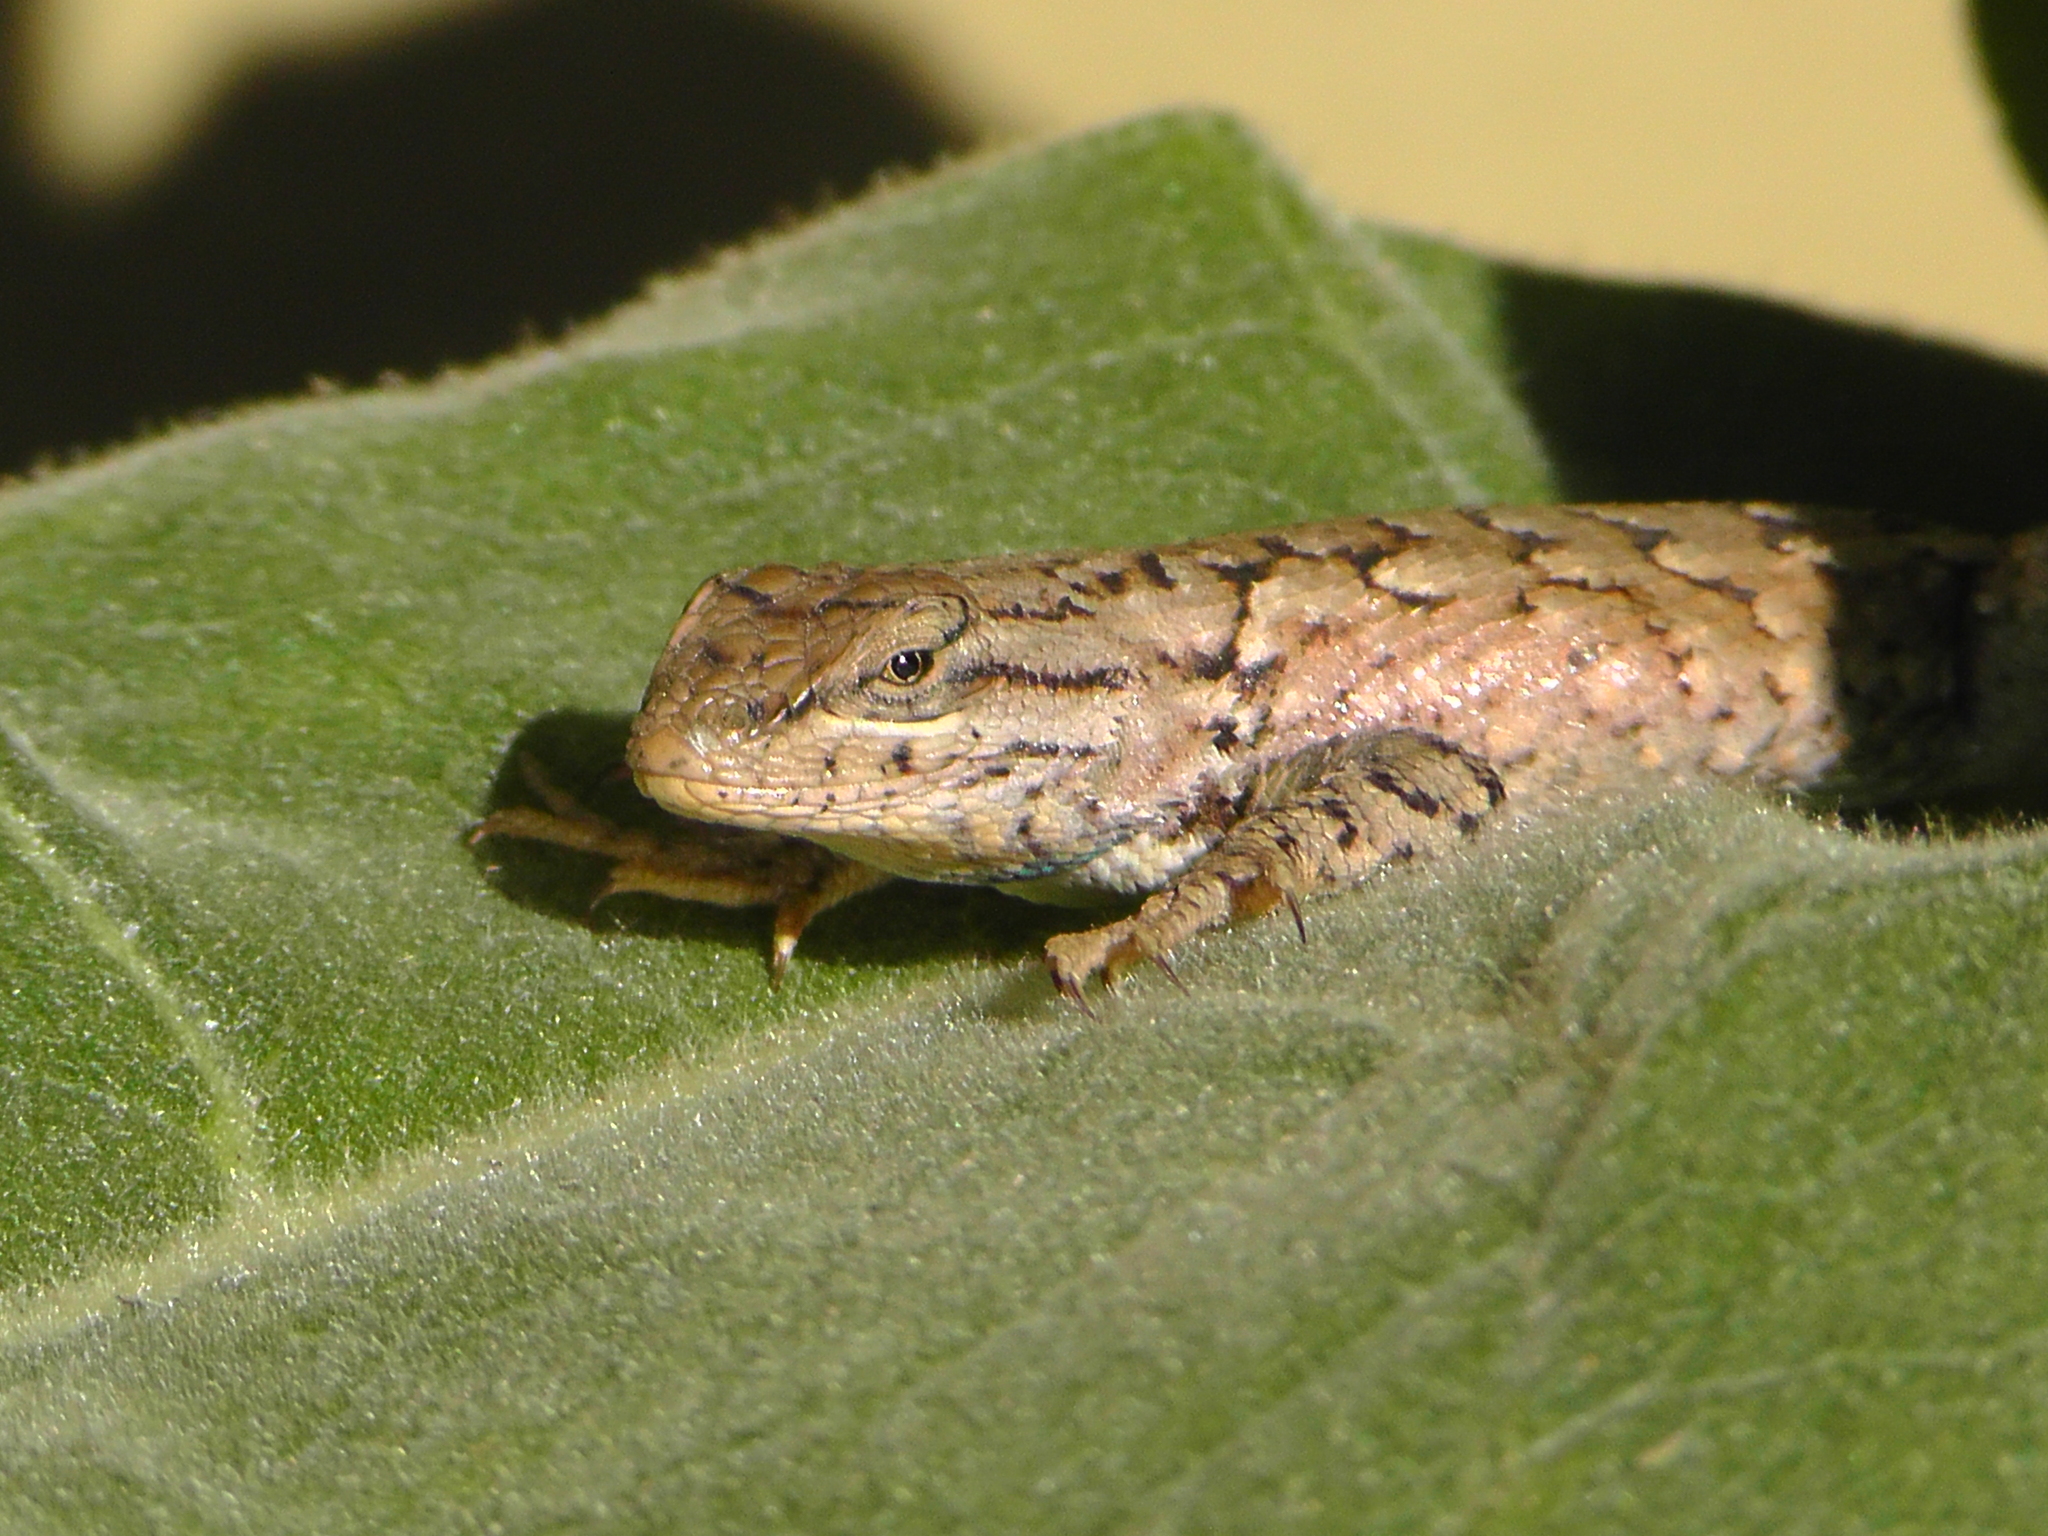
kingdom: Animalia
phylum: Chordata
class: Squamata
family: Phrynosomatidae
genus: Sceloporus
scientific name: Sceloporus consobrinus
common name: Southern prairie lizard
